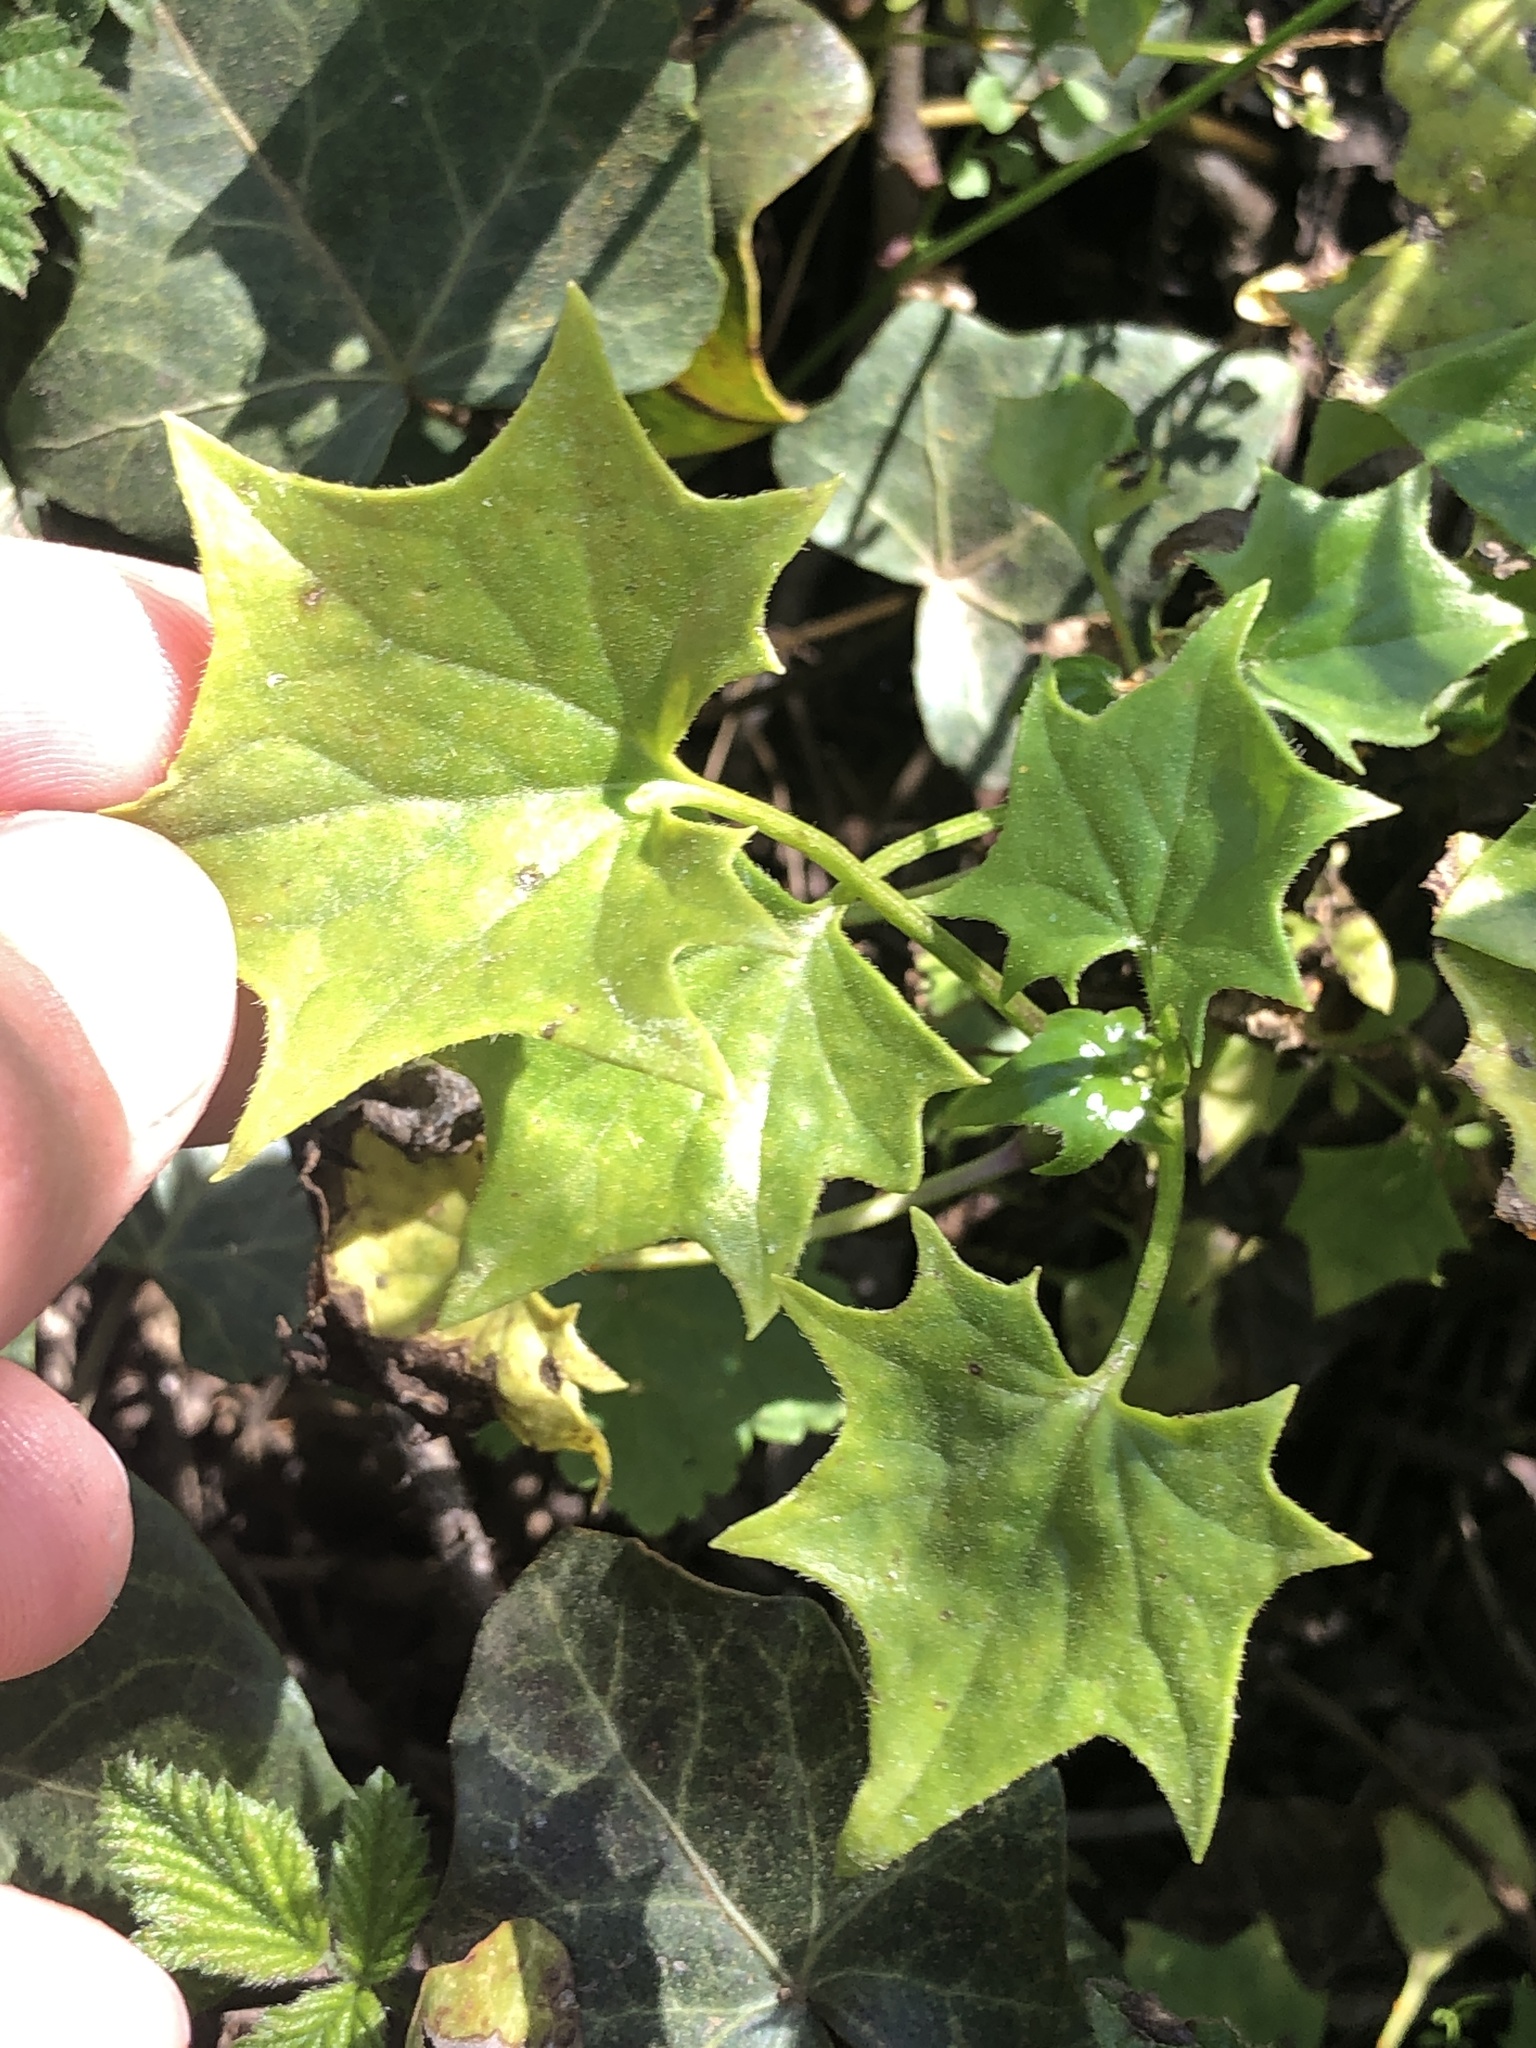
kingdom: Plantae
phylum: Tracheophyta
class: Magnoliopsida
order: Asterales
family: Asteraceae
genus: Delairea
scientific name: Delairea odorata
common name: Cape-ivy
